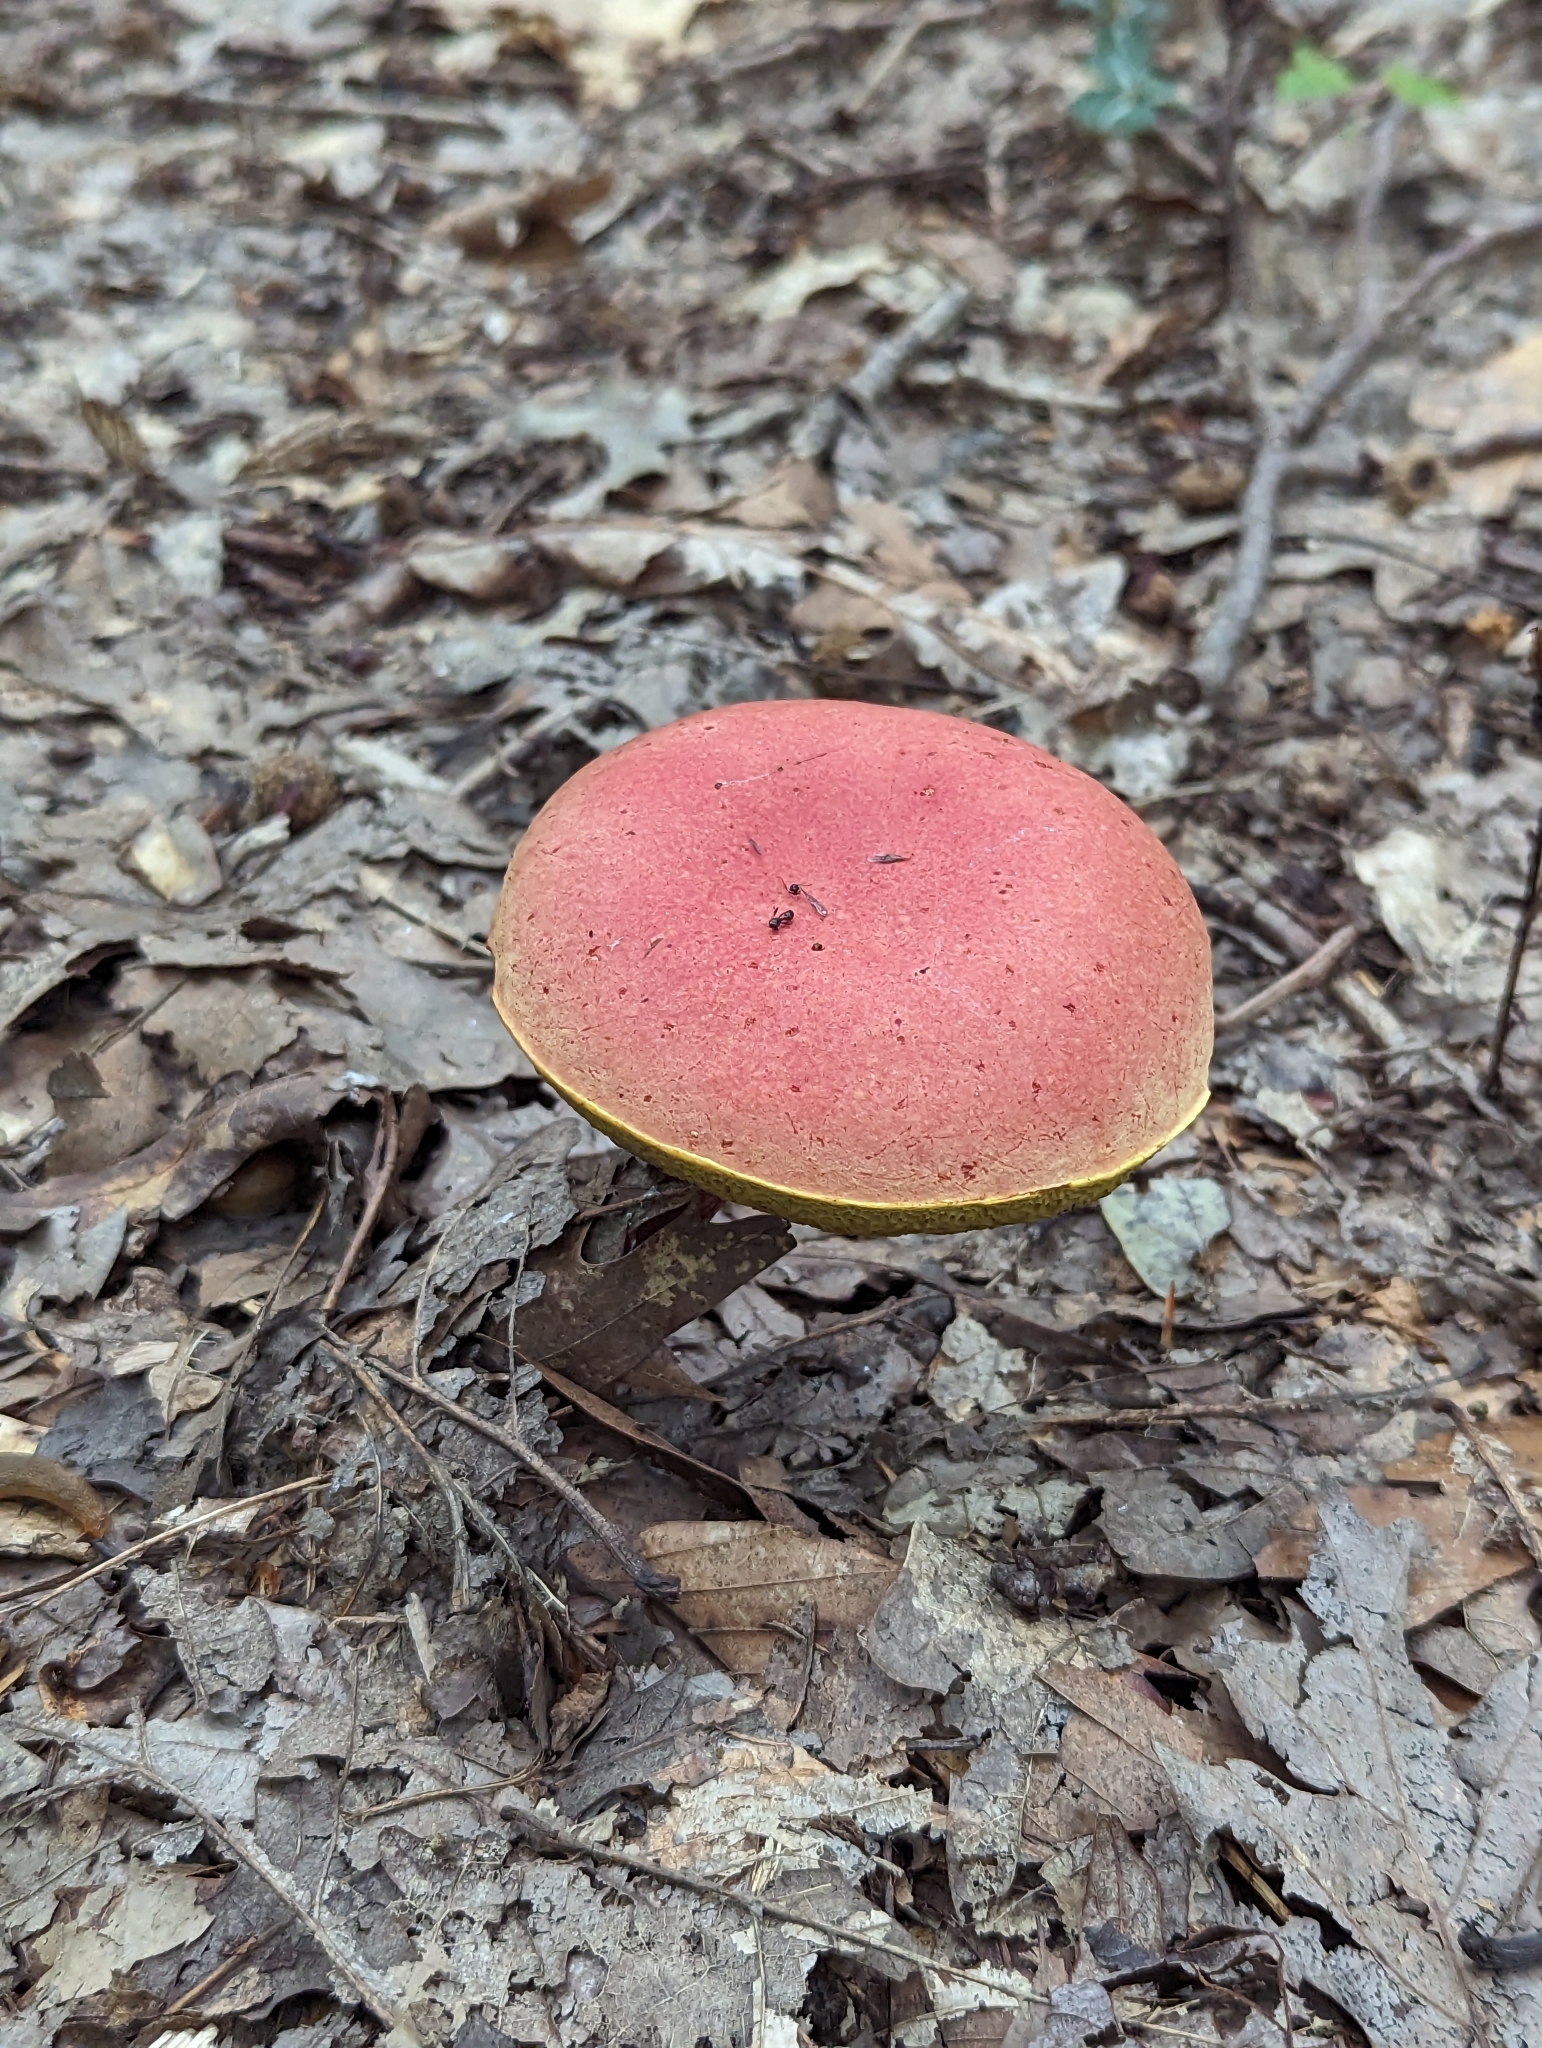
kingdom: Fungi
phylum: Basidiomycota
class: Agaricomycetes
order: Boletales
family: Boletaceae
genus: Baorangia
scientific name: Baorangia bicolor
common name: Two-colored bolete
